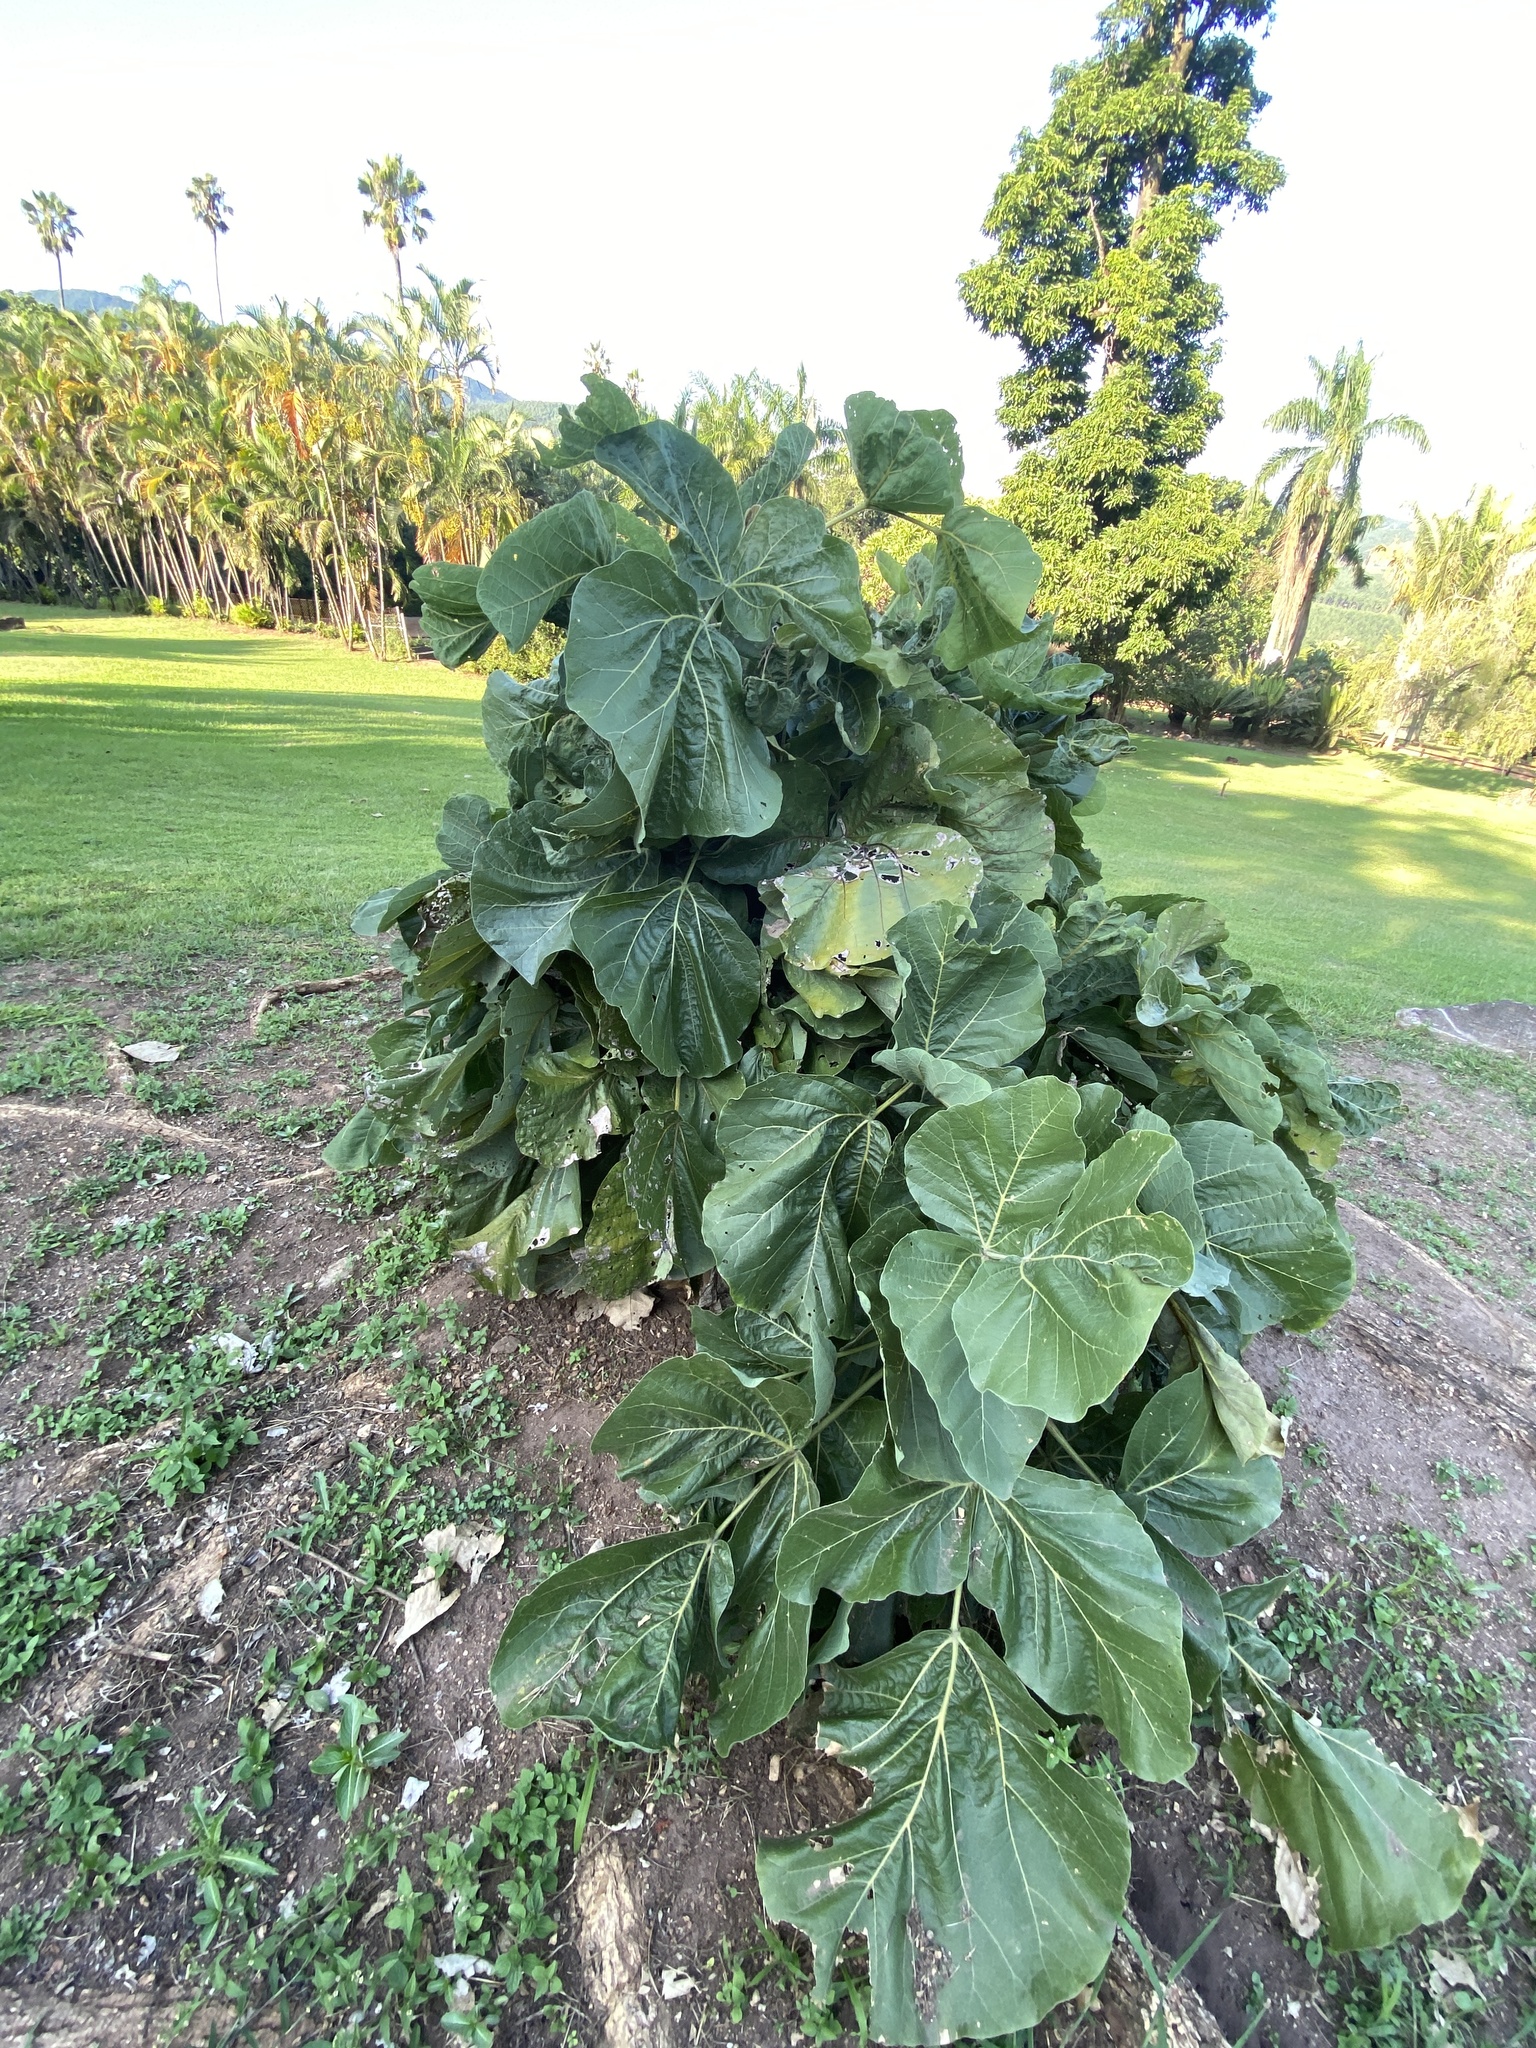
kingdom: Plantae
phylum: Tracheophyta
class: Magnoliopsida
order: Fabales
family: Fabaceae
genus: Erythrina
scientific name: Erythrina latissima
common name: Broad-leaved coral tree
